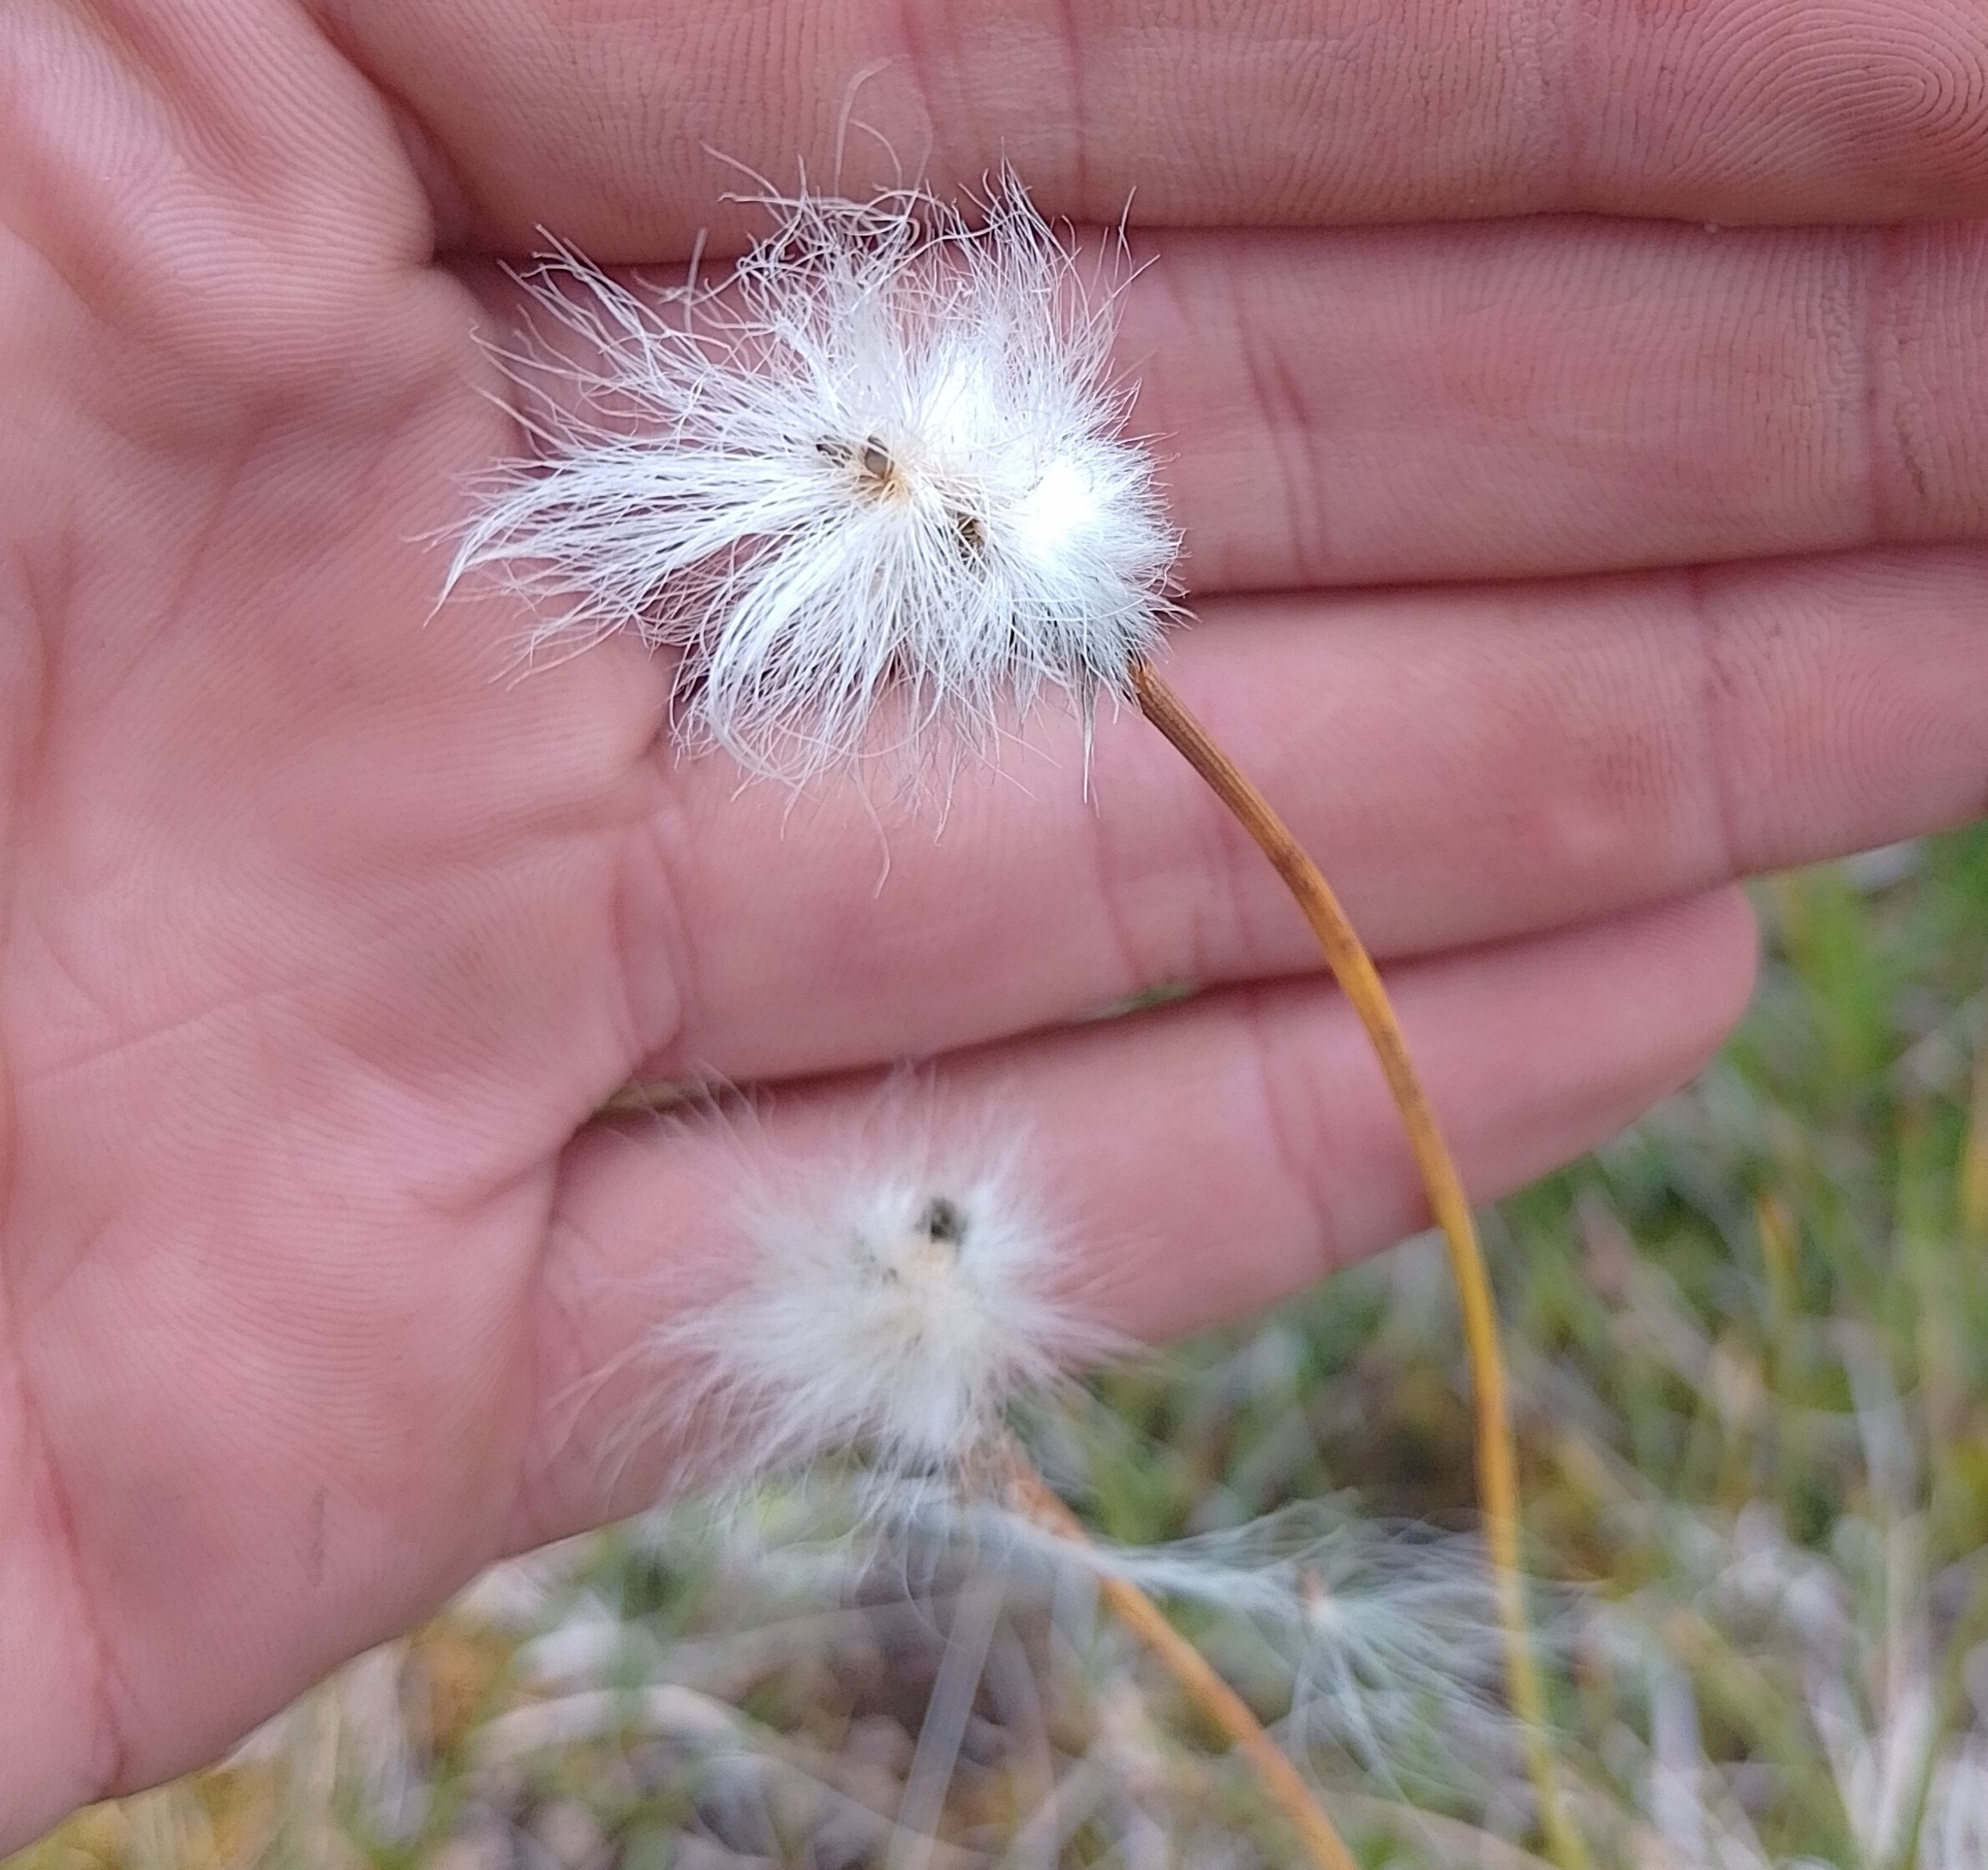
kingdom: Plantae
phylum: Tracheophyta
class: Liliopsida
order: Poales
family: Cyperaceae
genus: Eriophorum
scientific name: Eriophorum scheuchzeri
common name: Scheuchzer's cottongrass
